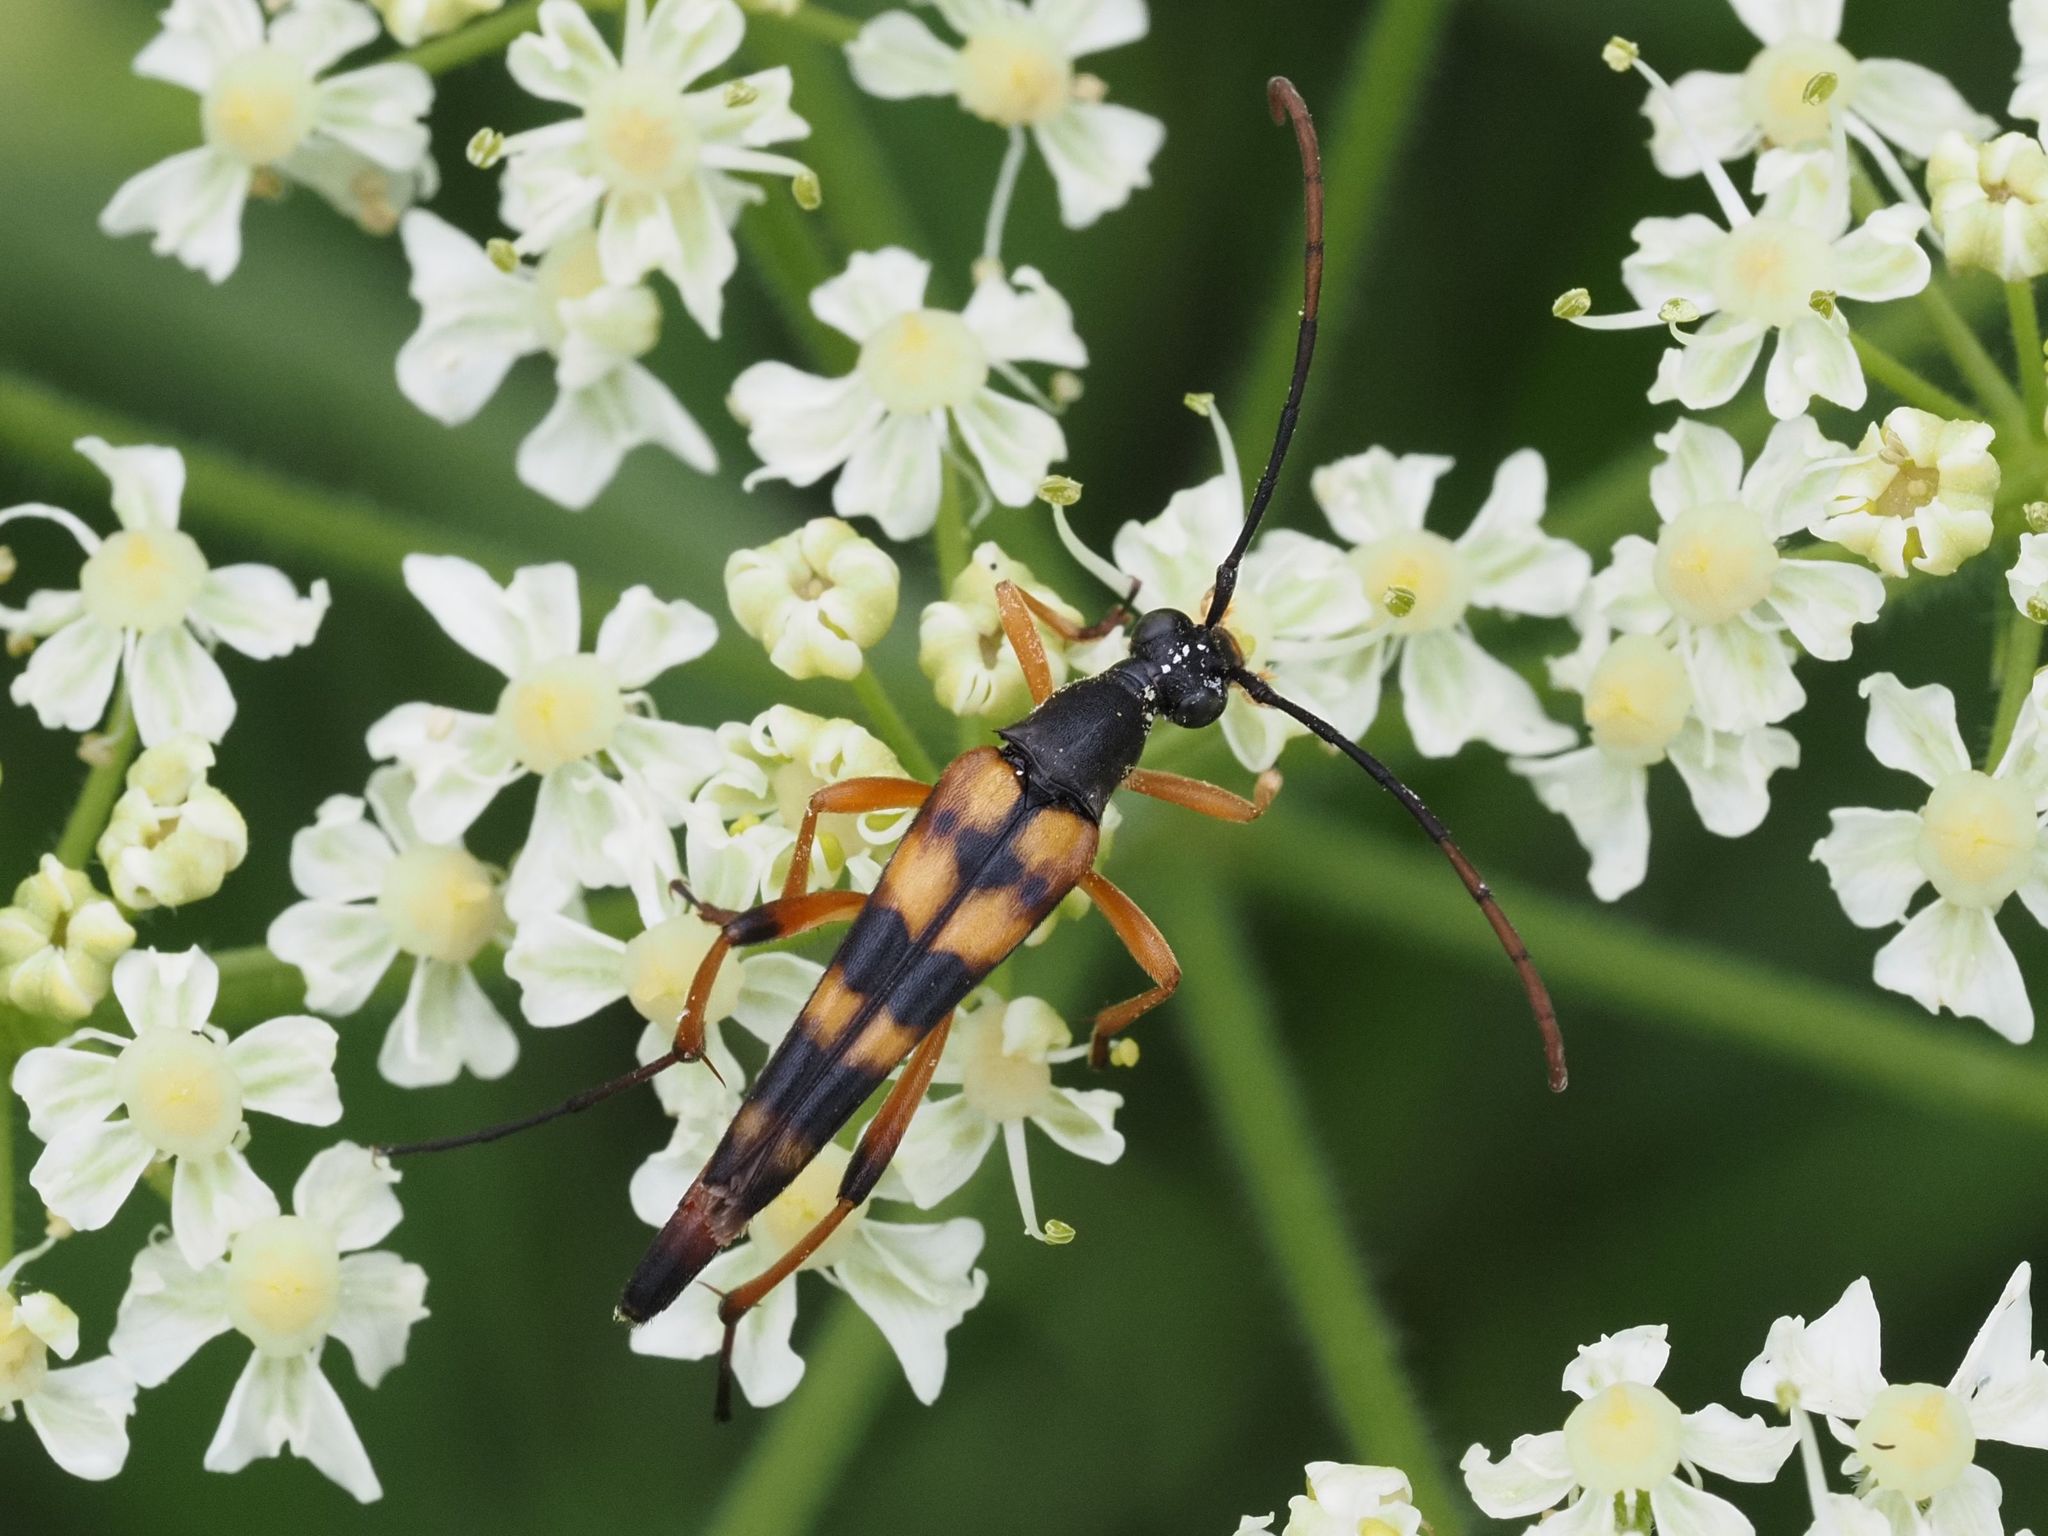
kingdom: Animalia
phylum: Arthropoda
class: Insecta
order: Coleoptera
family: Cerambycidae
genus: Strangalia
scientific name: Strangalia attenuata
